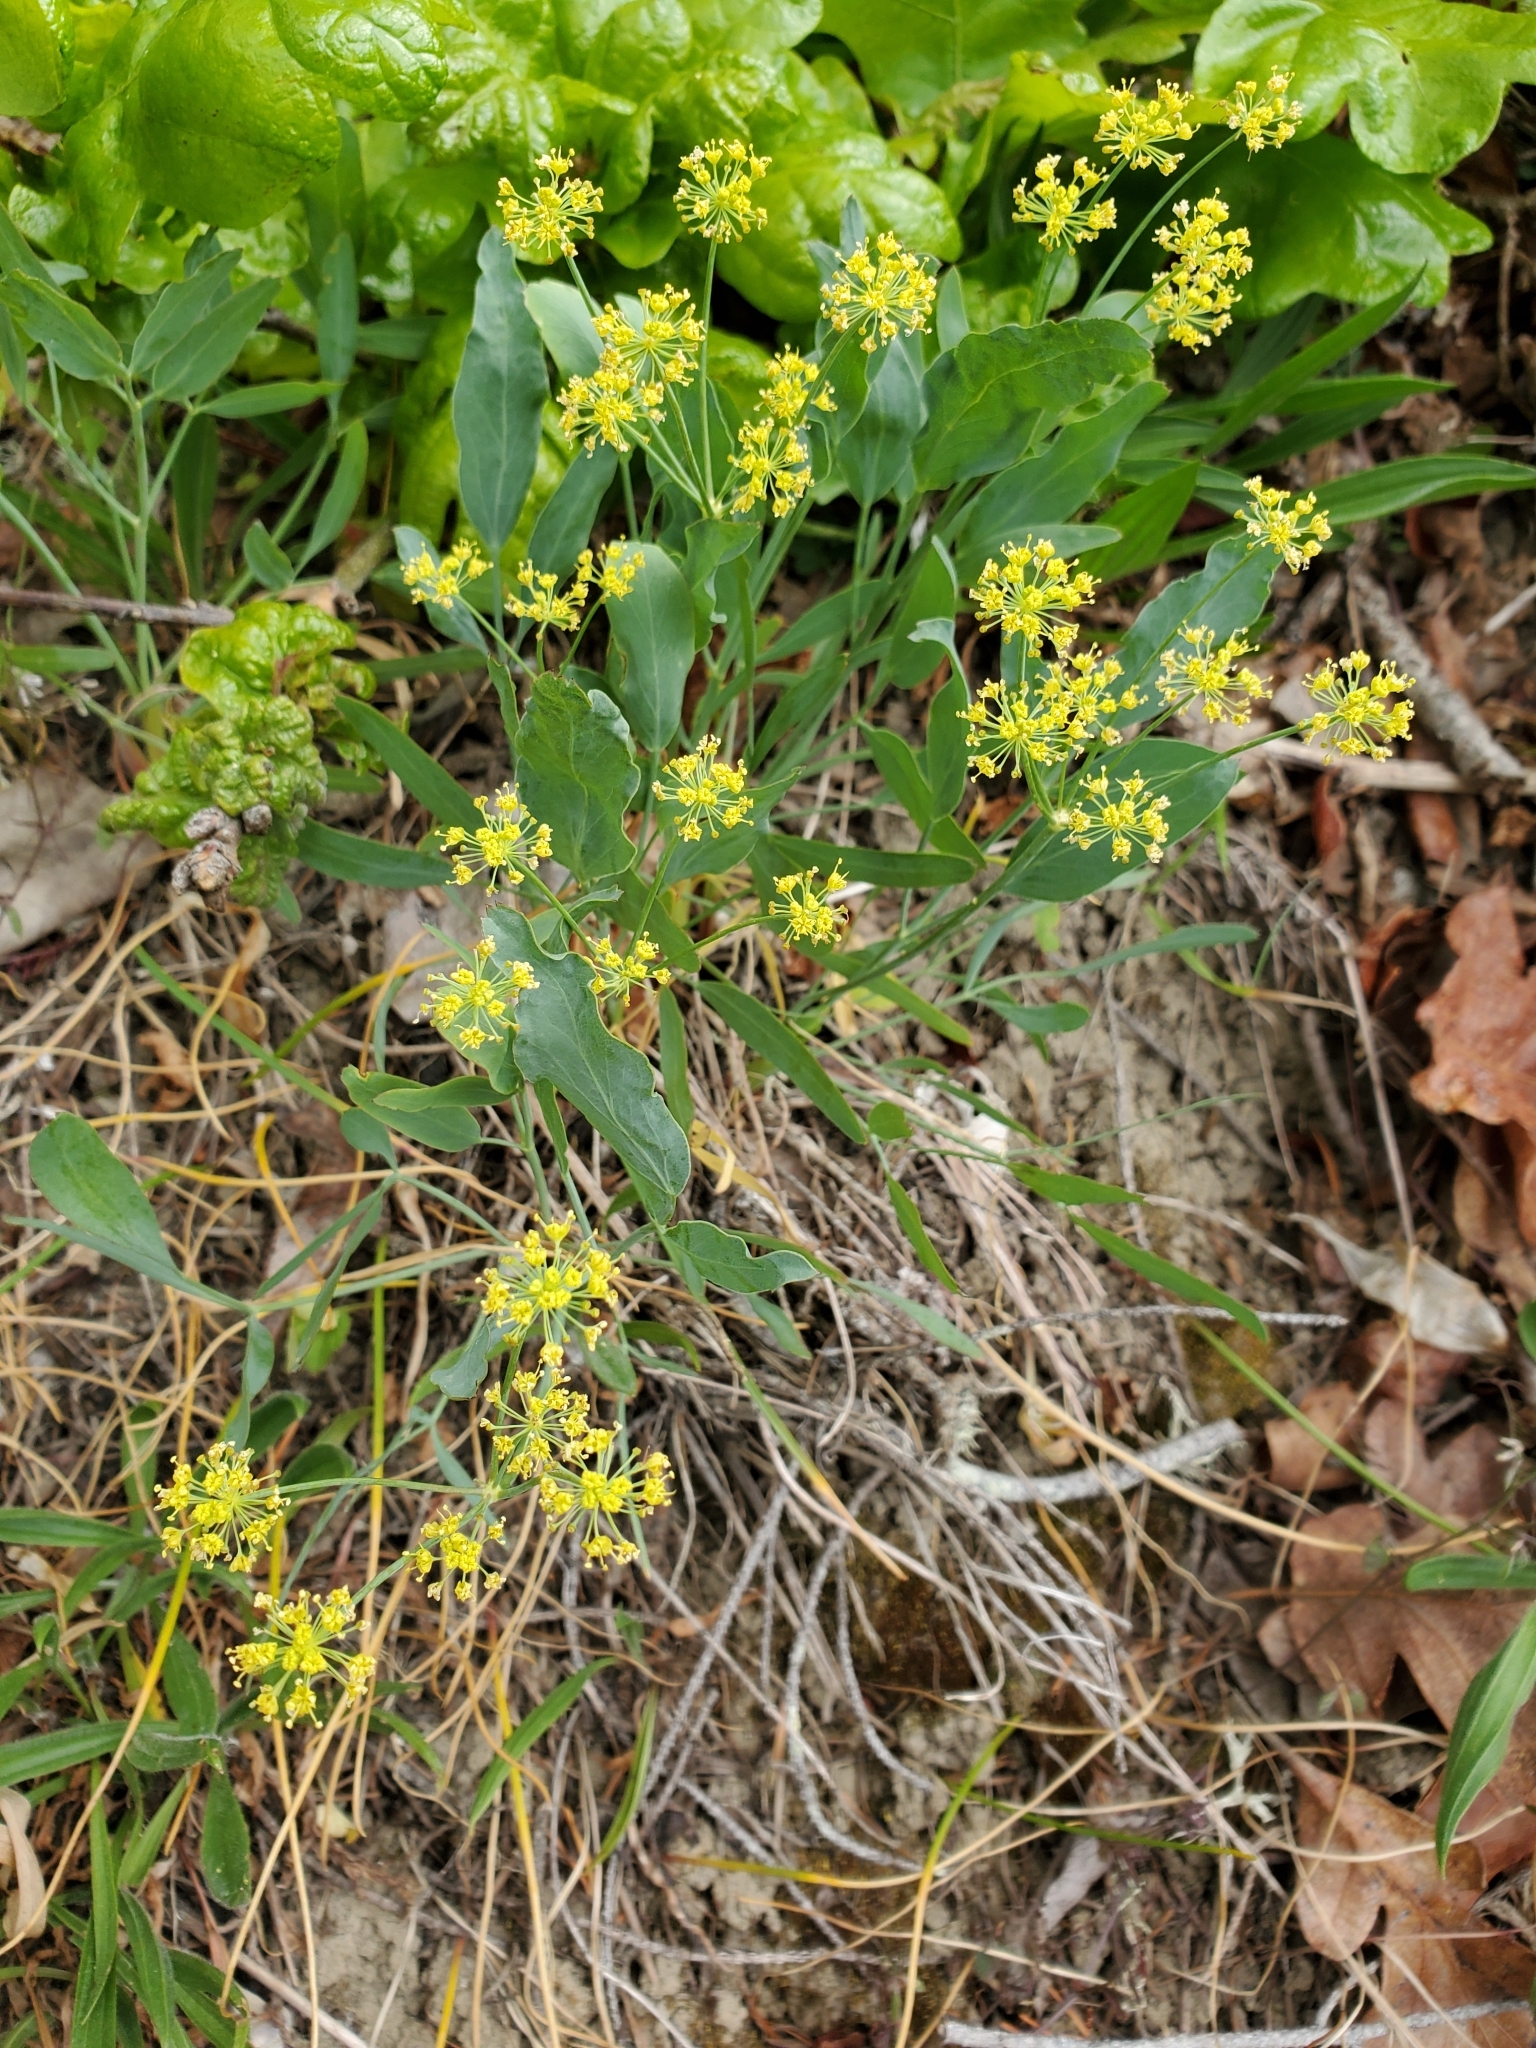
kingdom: Plantae
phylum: Tracheophyta
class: Magnoliopsida
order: Apiales
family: Apiaceae
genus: Lomatium
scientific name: Lomatium nudicaule
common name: Pestle lomatium
